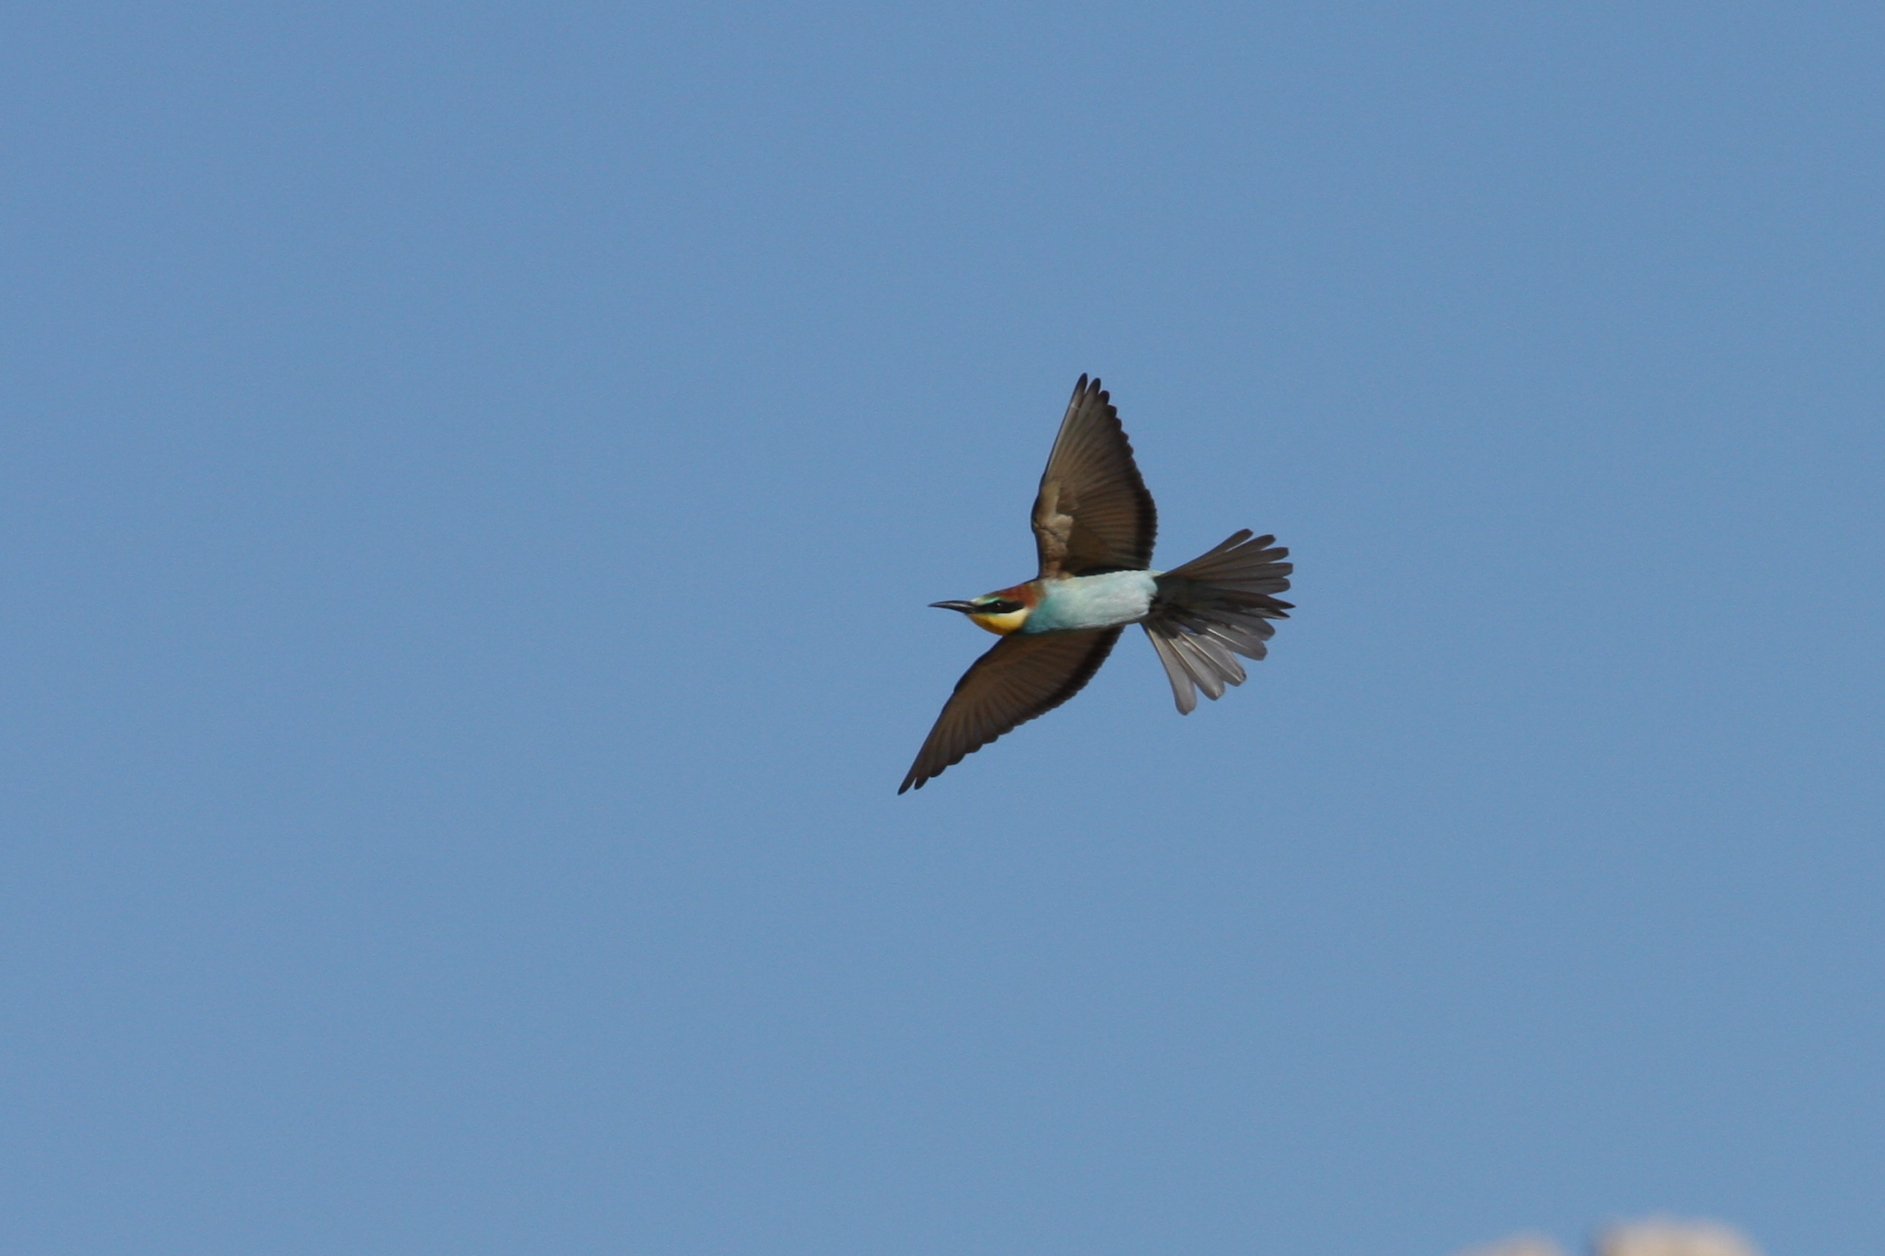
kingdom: Animalia
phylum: Chordata
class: Aves
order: Coraciiformes
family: Meropidae
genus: Merops
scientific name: Merops apiaster
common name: European bee-eater
